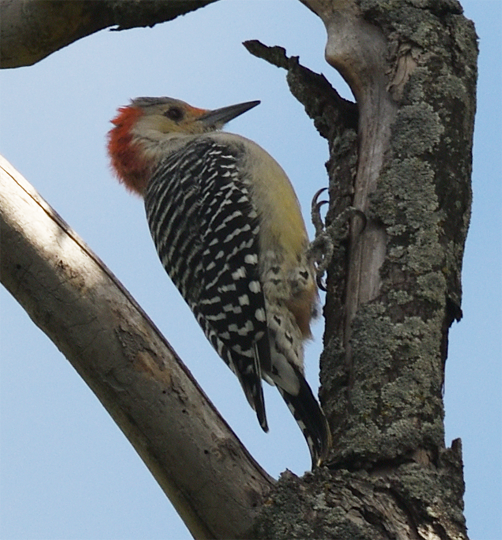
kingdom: Animalia
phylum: Chordata
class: Aves
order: Piciformes
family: Picidae
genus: Melanerpes
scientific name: Melanerpes carolinus
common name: Red-bellied woodpecker
